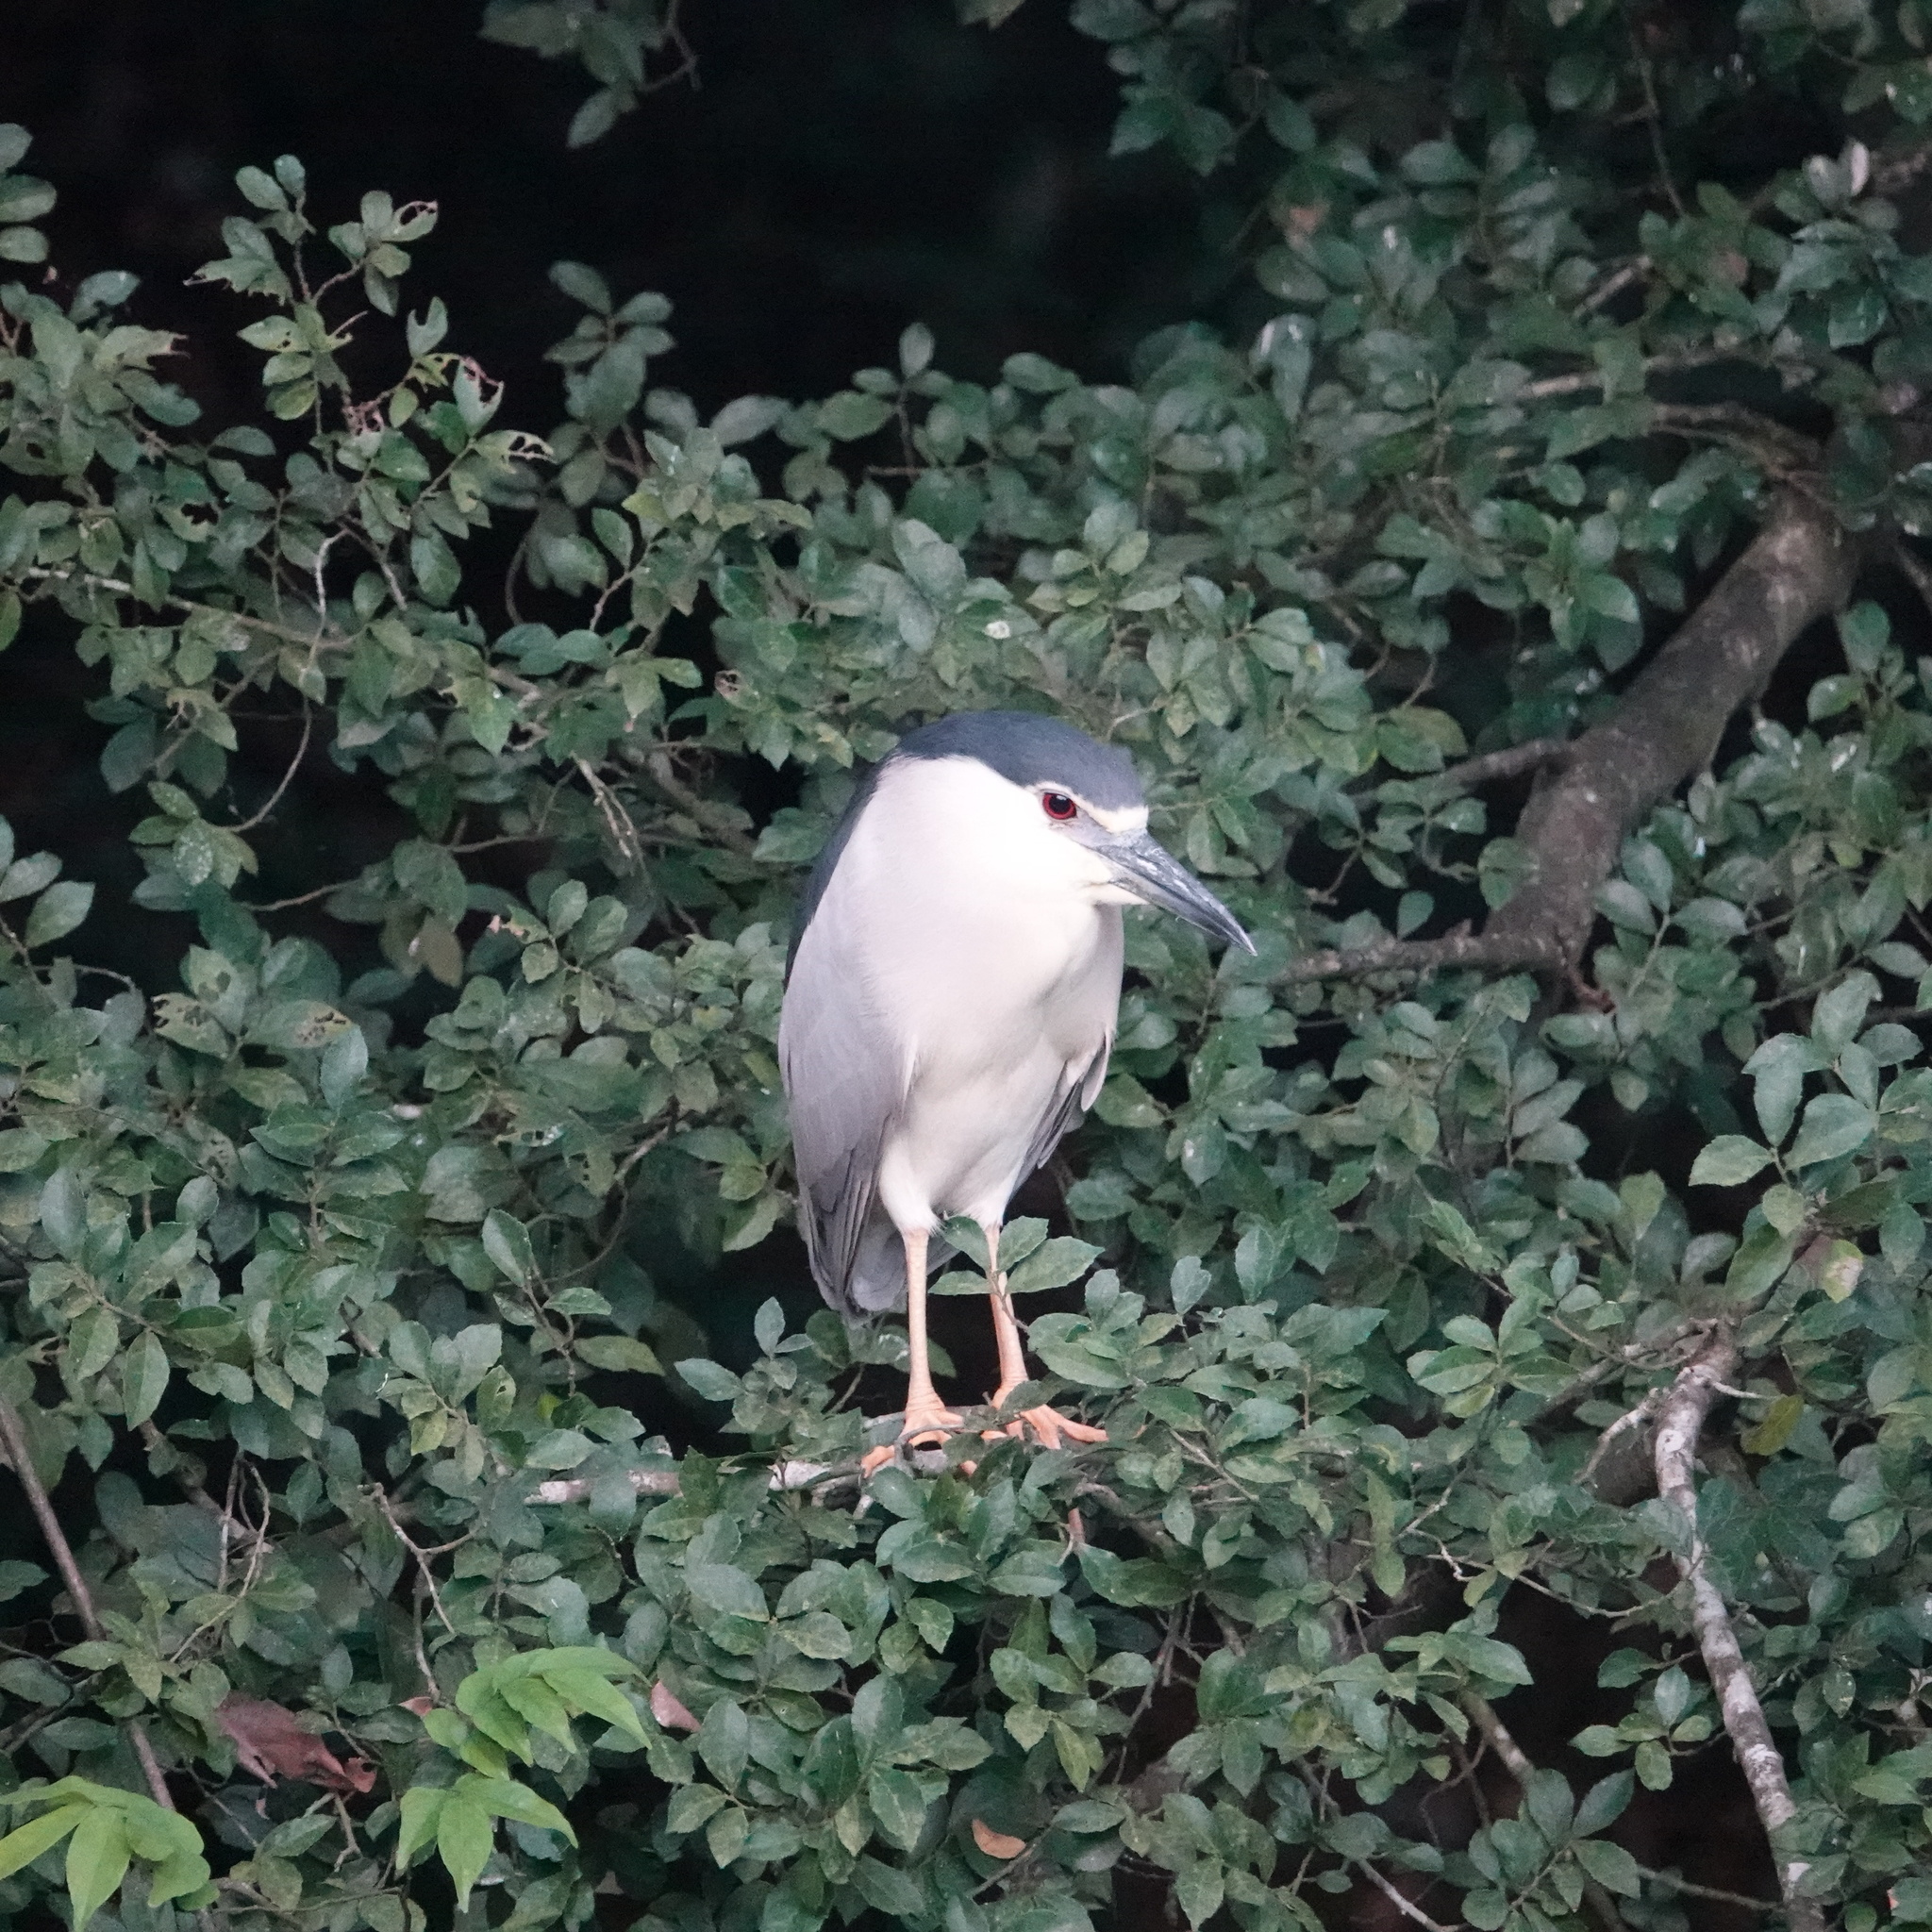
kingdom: Animalia
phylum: Chordata
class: Aves
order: Pelecaniformes
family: Ardeidae
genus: Nycticorax
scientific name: Nycticorax nycticorax
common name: Black-crowned night heron
